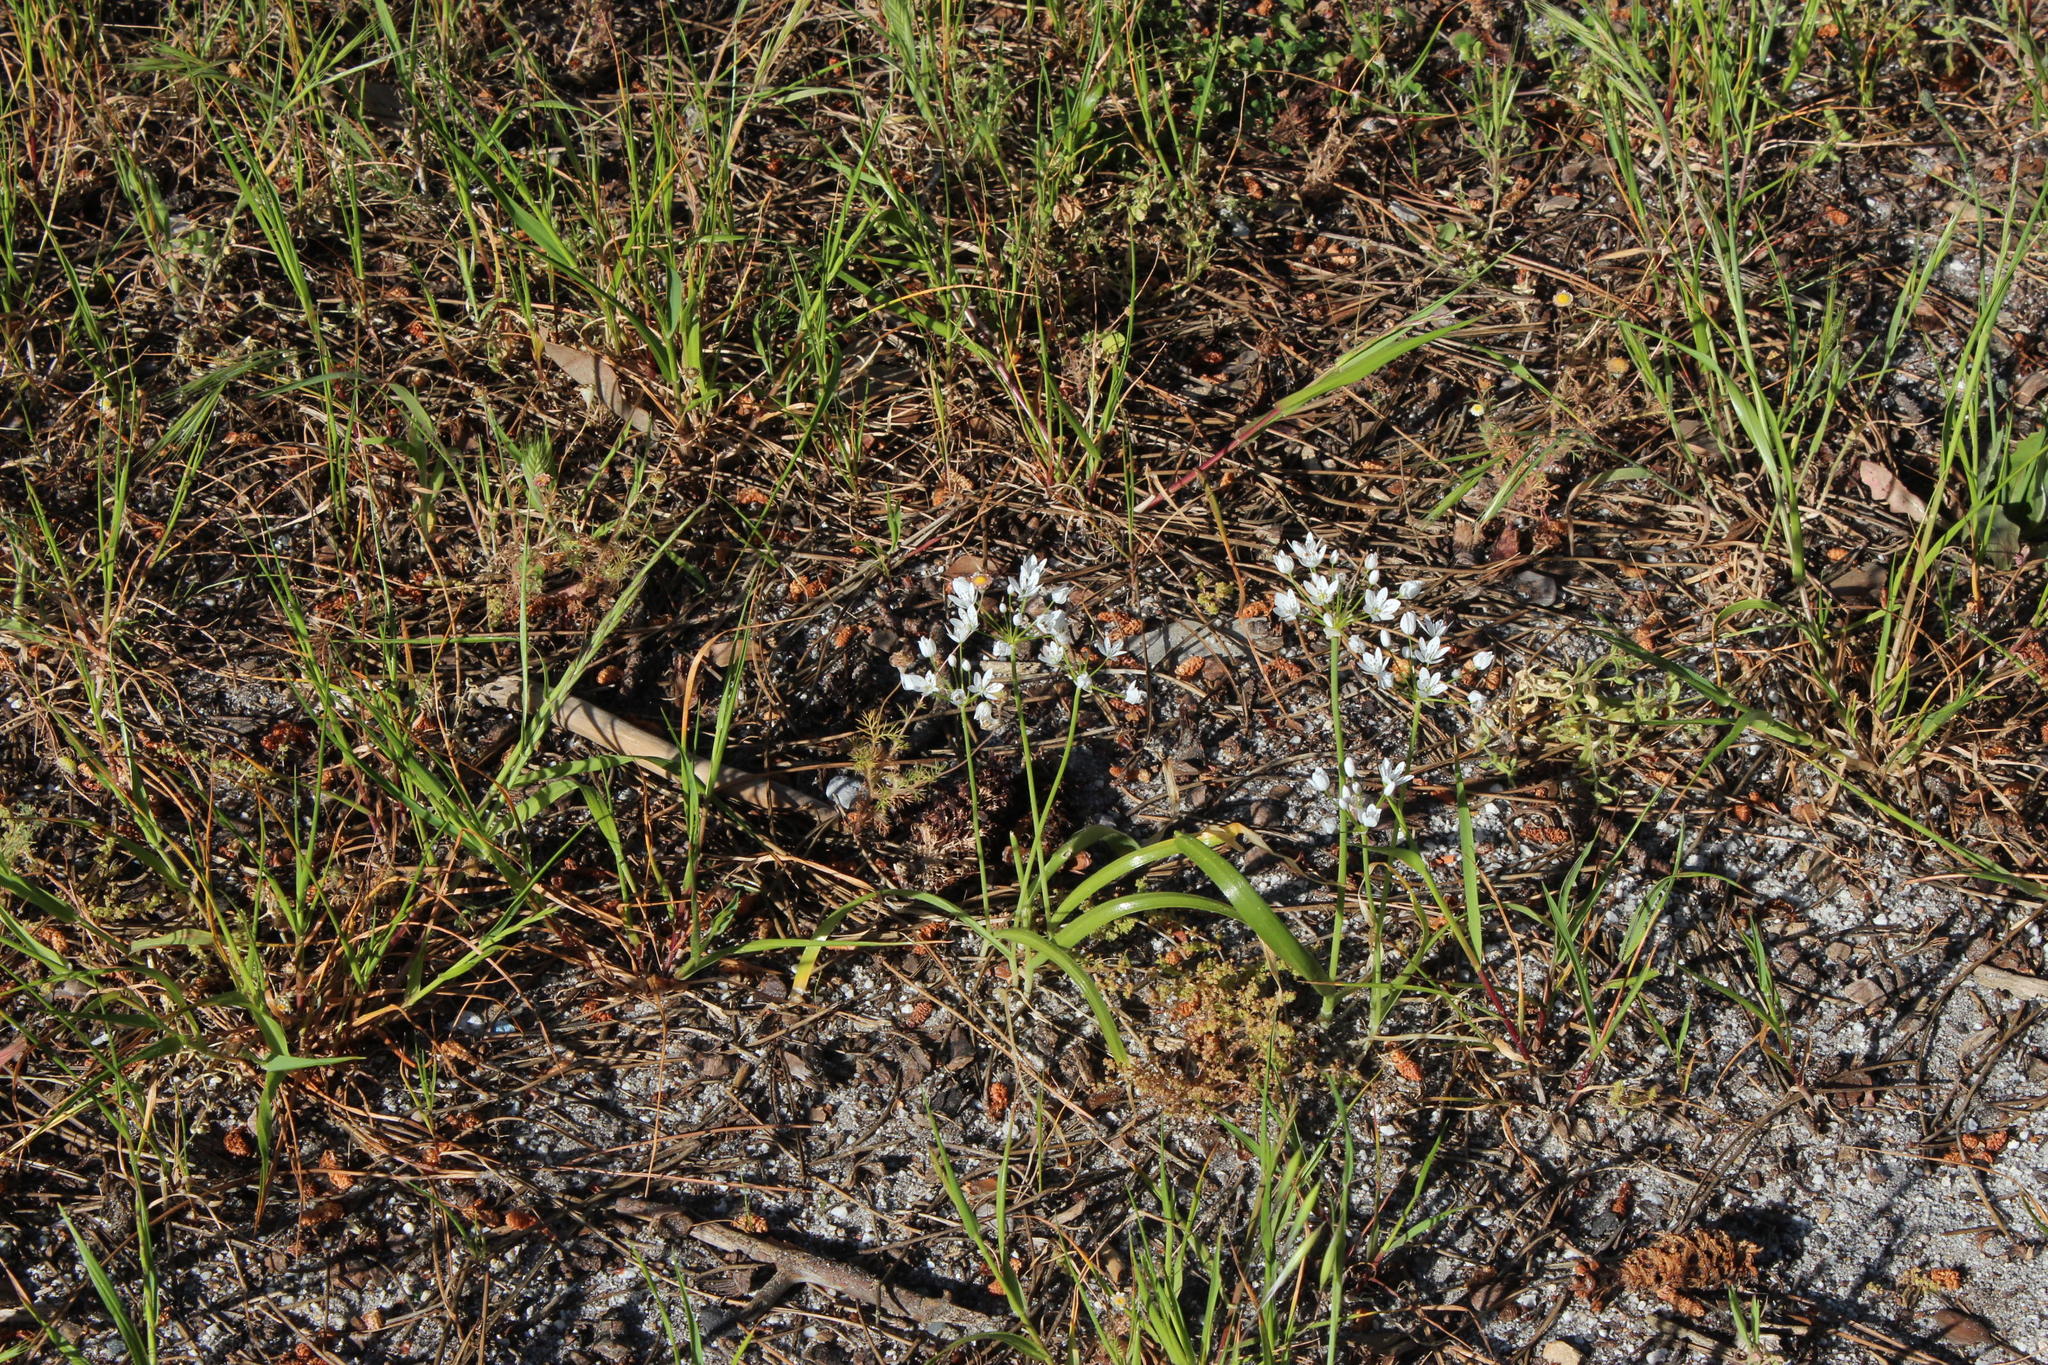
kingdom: Plantae
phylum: Tracheophyta
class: Liliopsida
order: Asparagales
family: Amaryllidaceae
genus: Allium
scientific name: Allium neapolitanum
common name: Neapolitan garlic
